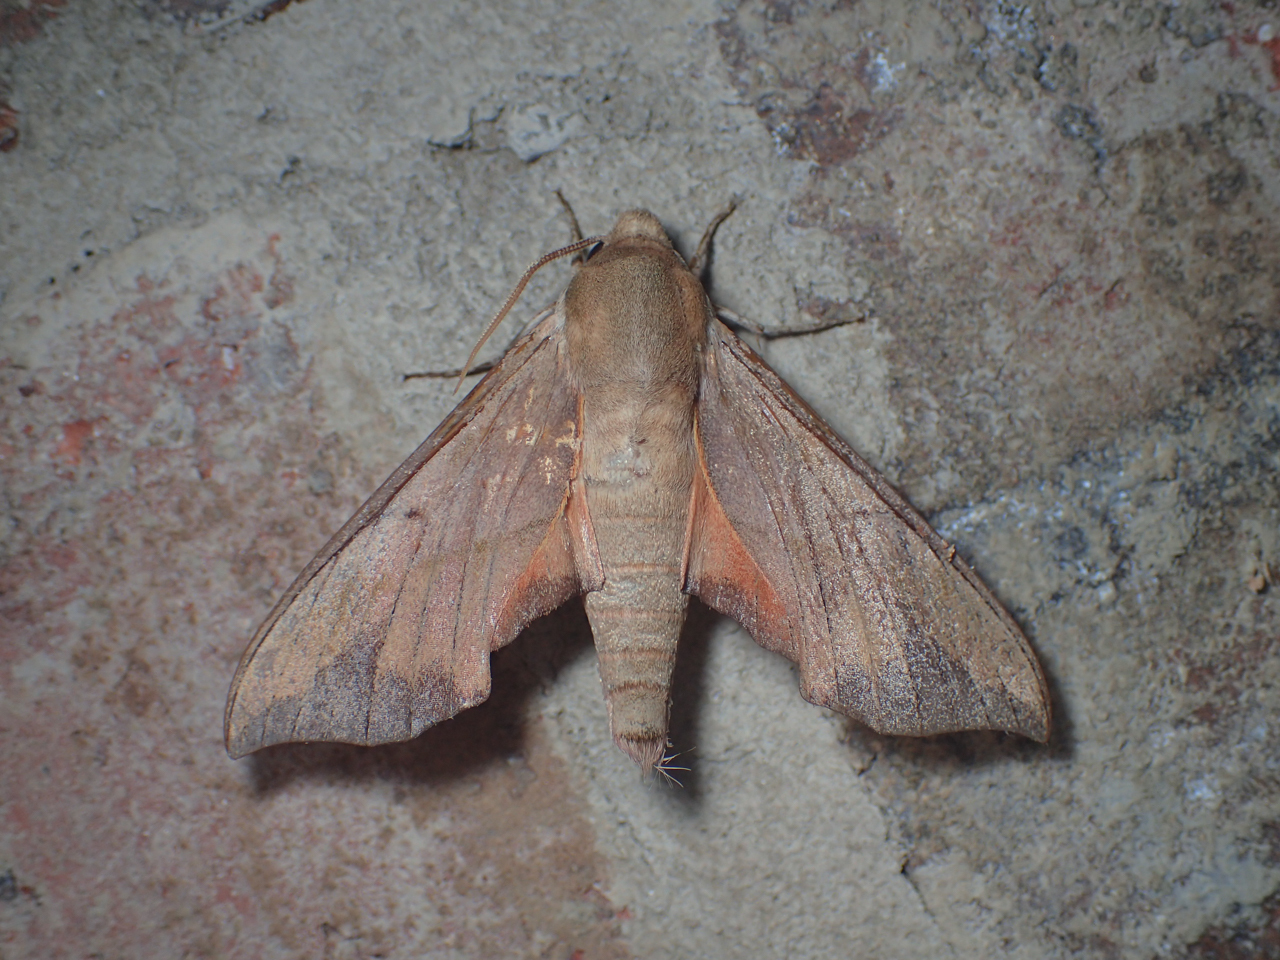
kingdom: Animalia
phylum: Arthropoda
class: Insecta
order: Lepidoptera
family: Sphingidae
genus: Darapsa
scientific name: Darapsa myron
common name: Hog sphinx
